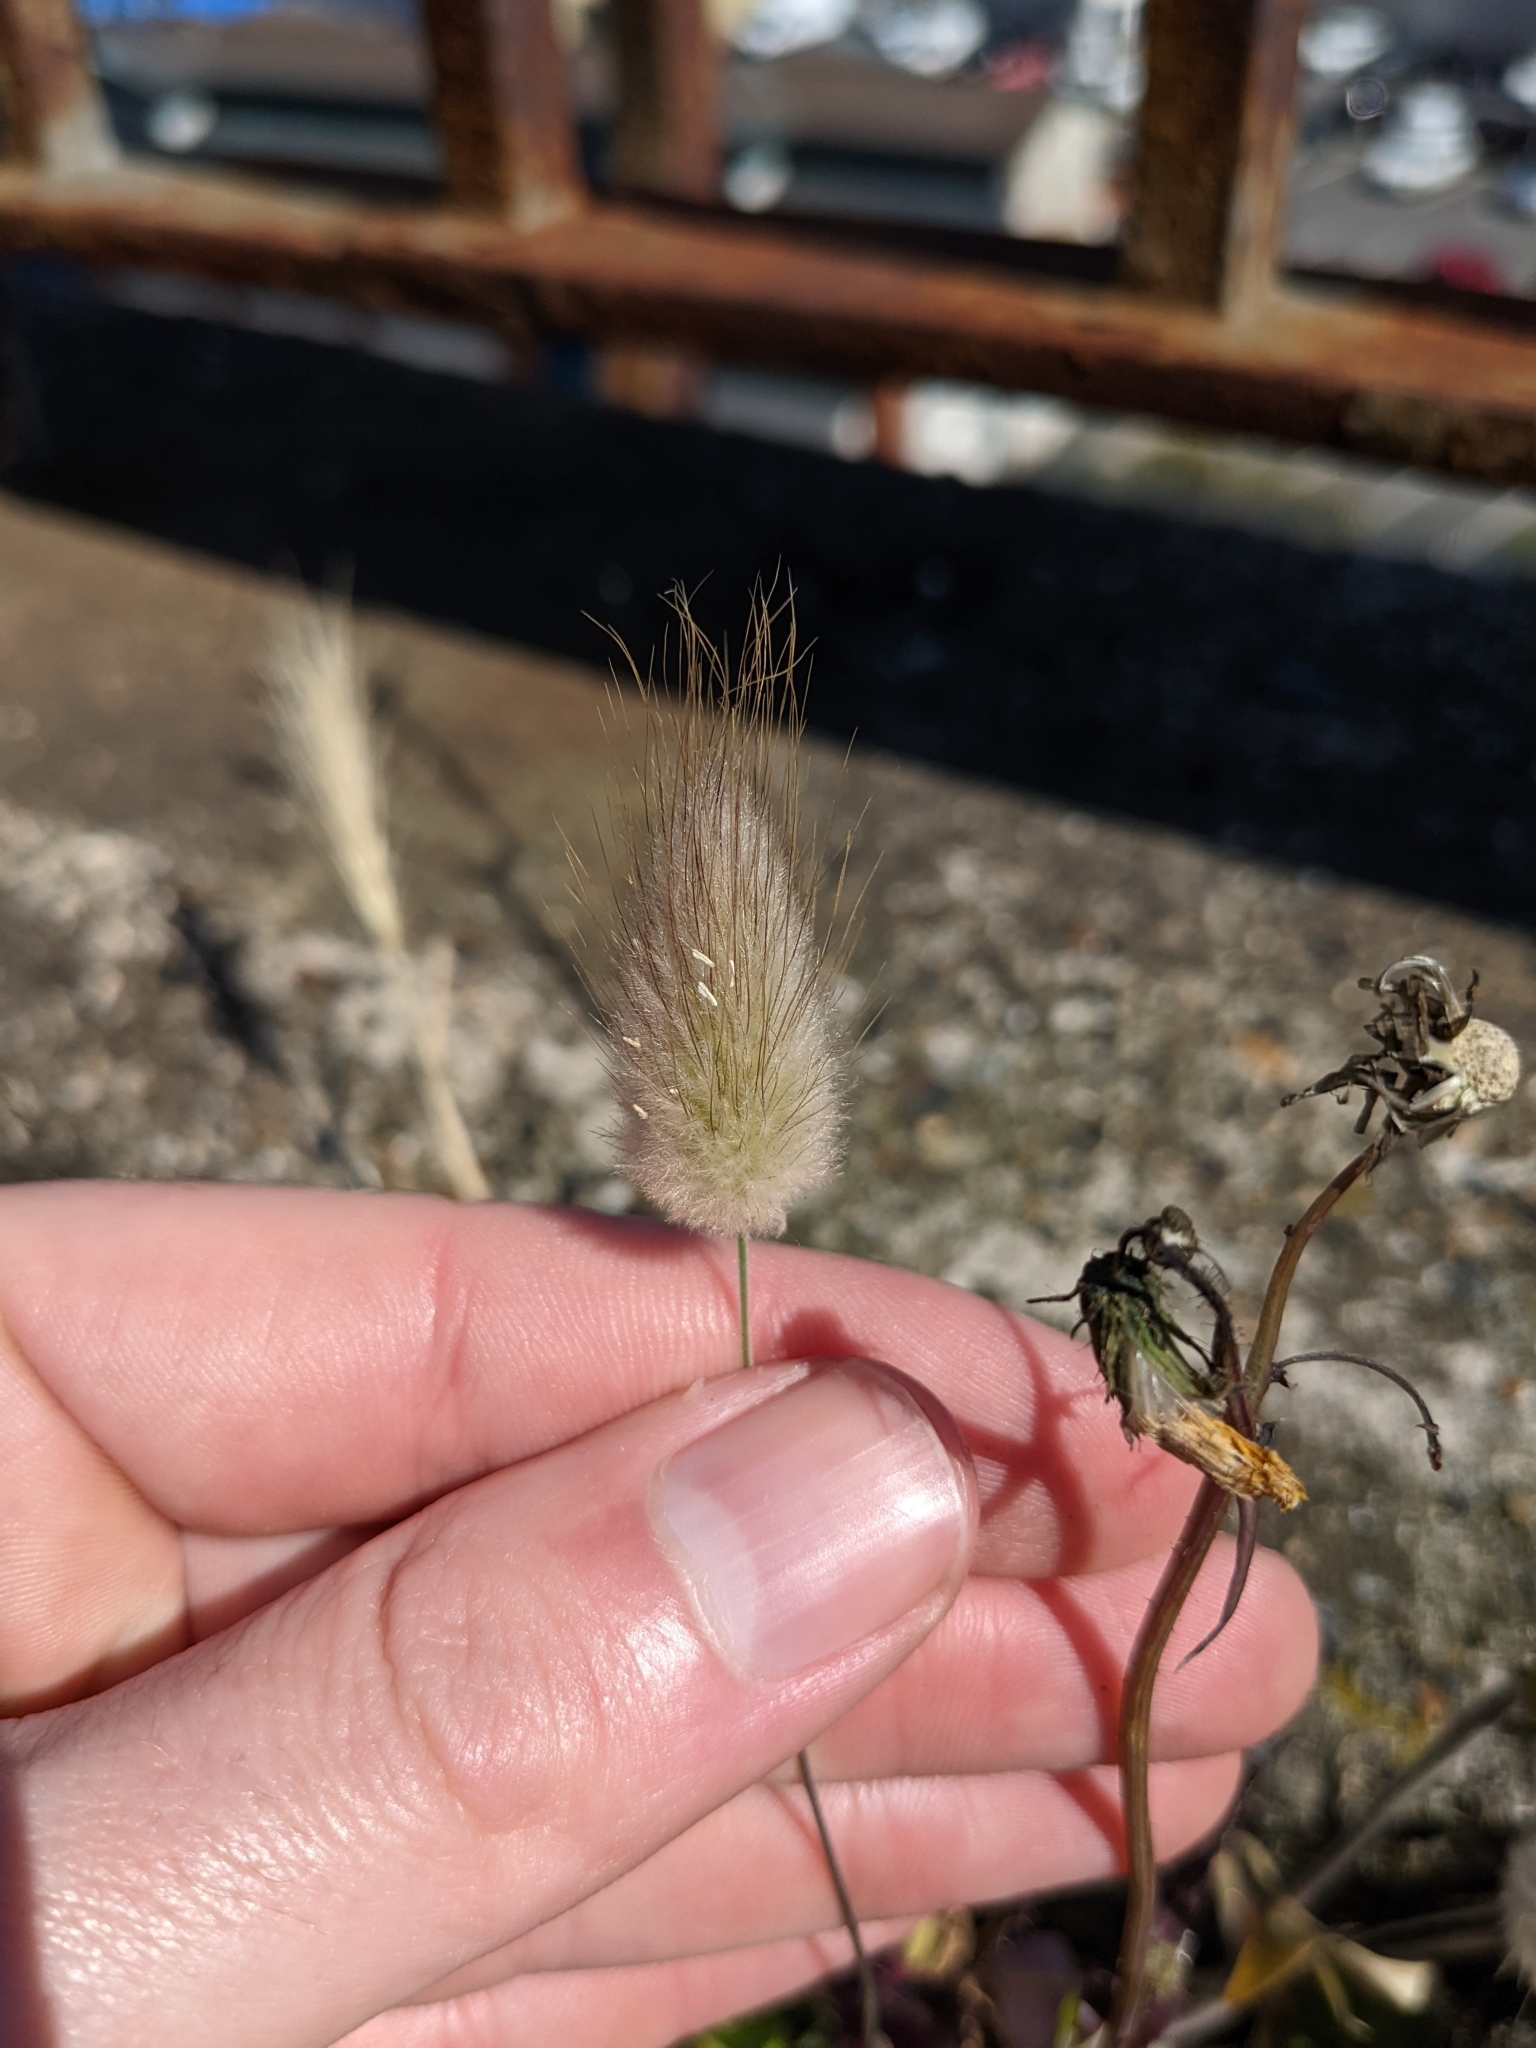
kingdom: Plantae
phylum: Tracheophyta
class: Liliopsida
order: Poales
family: Poaceae
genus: Lagurus
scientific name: Lagurus ovatus
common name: Hare's-tail
